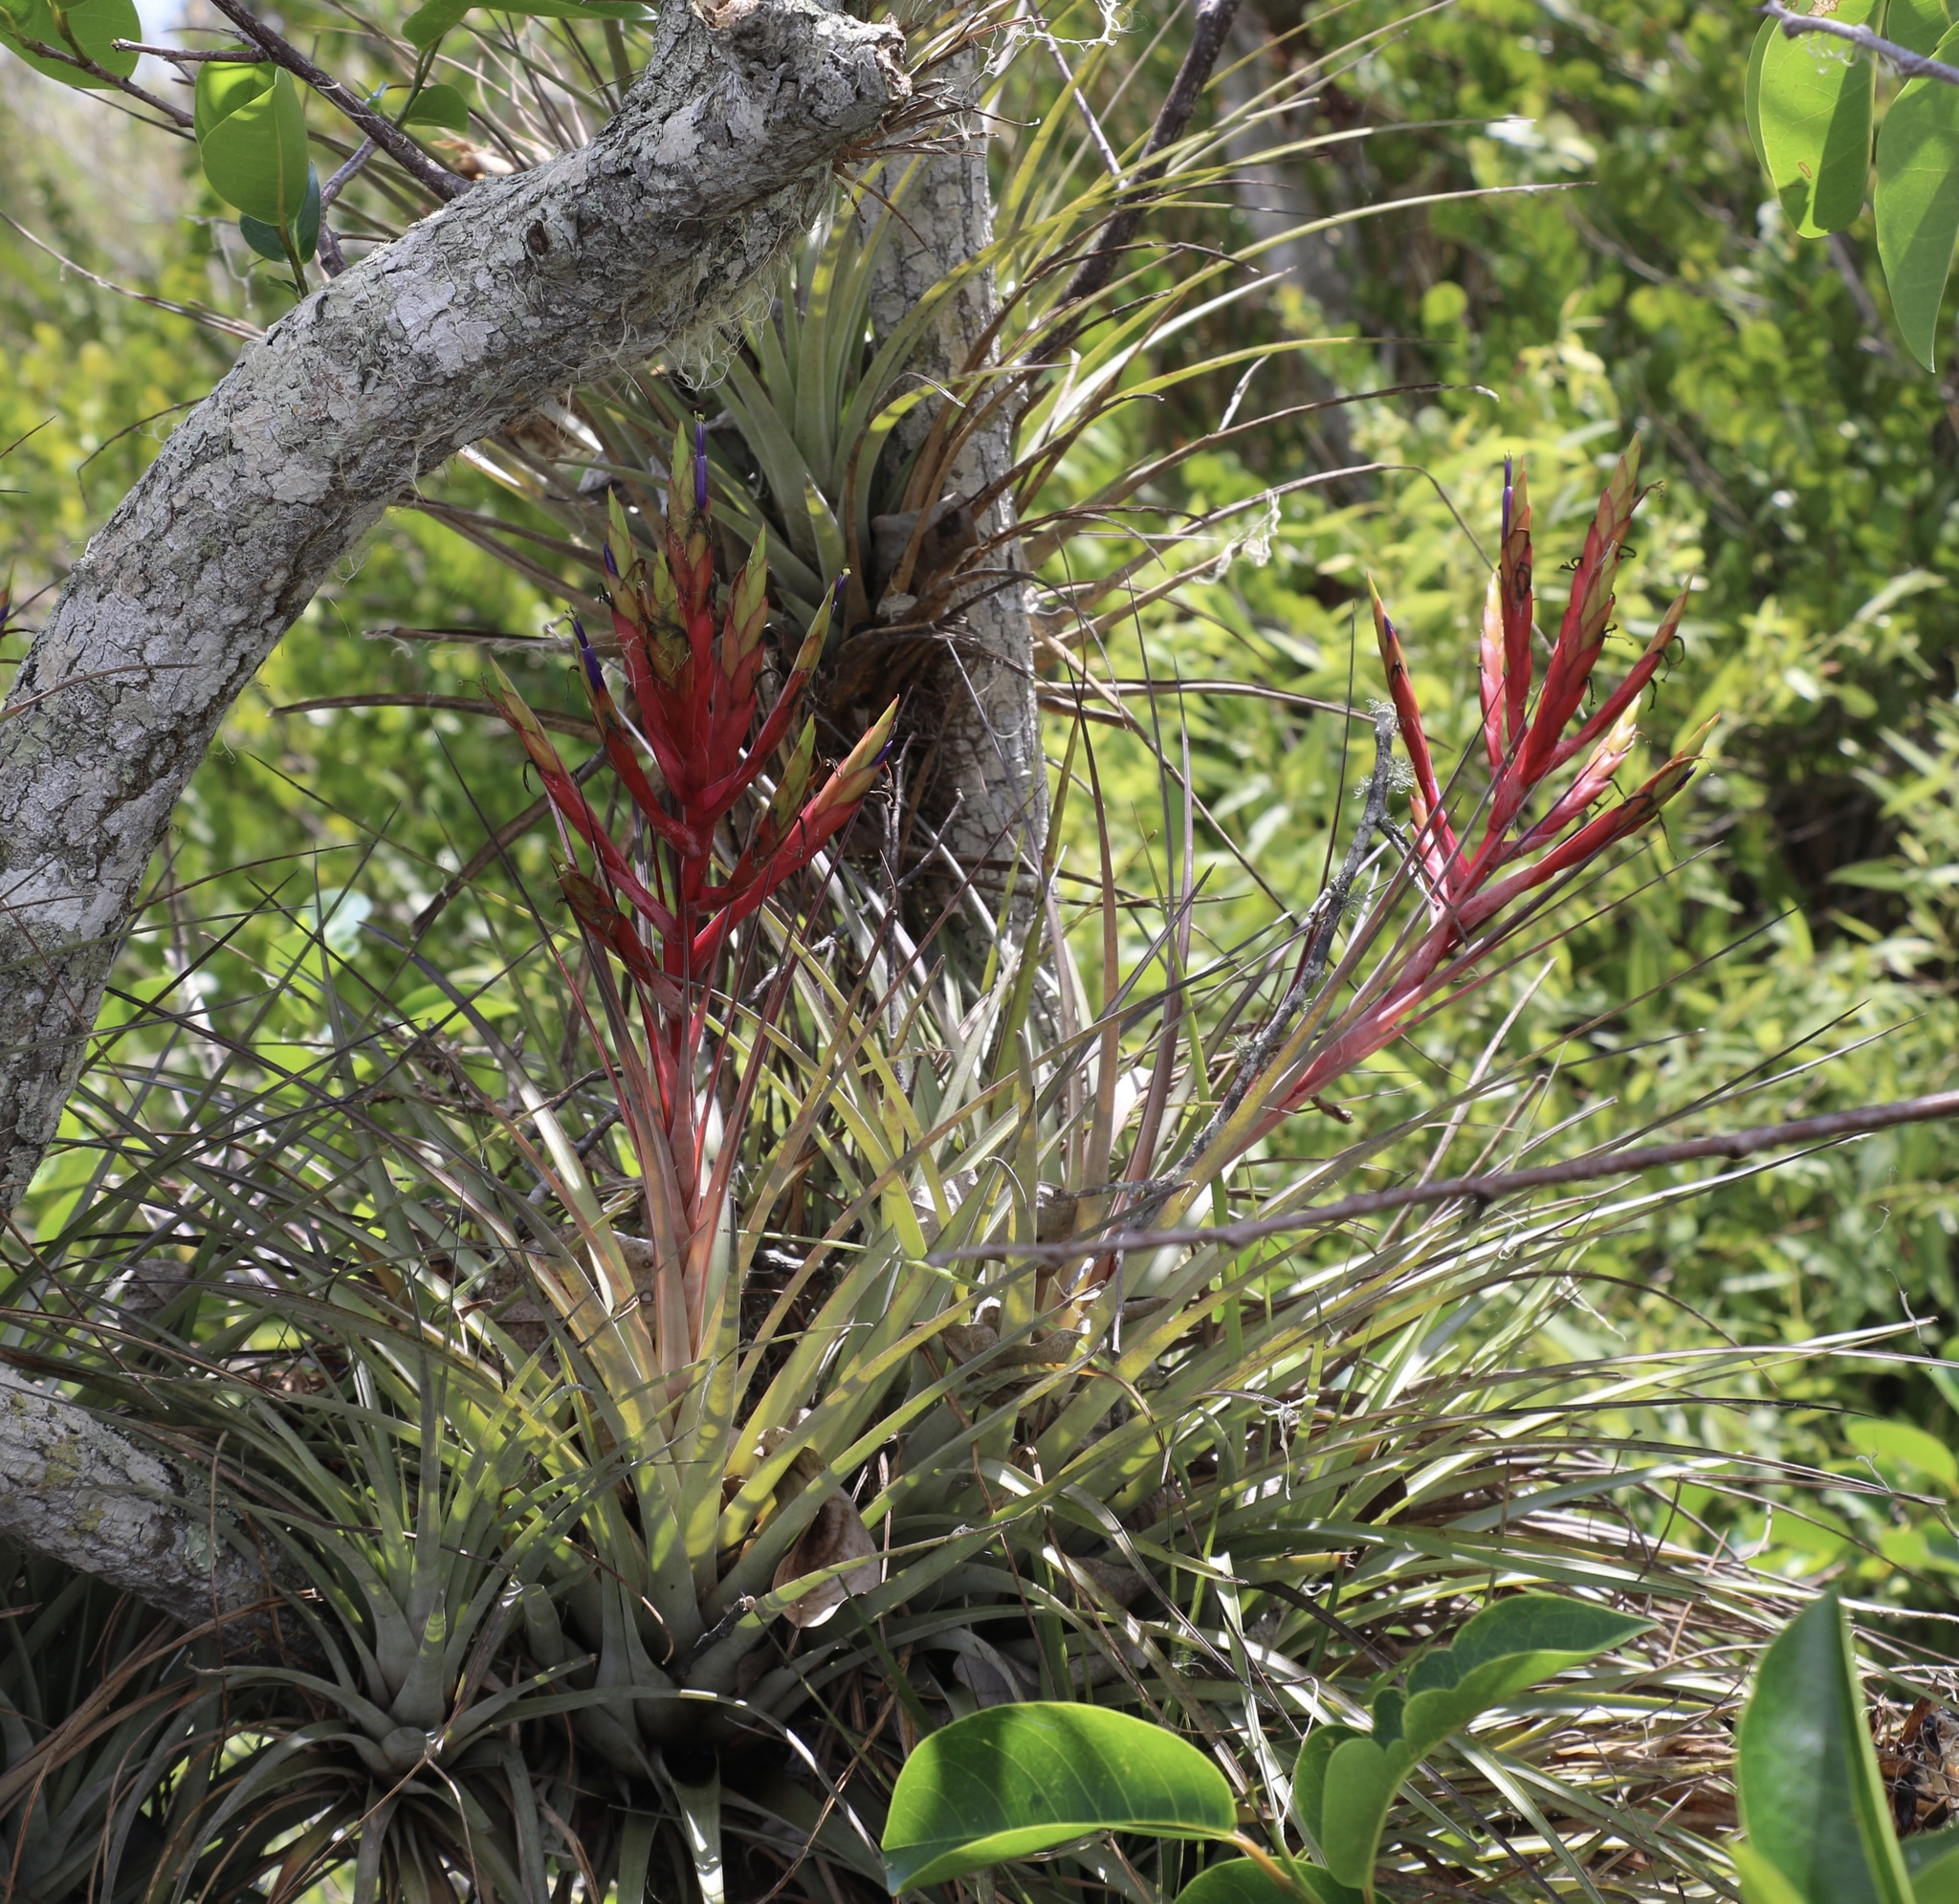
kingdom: Plantae
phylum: Tracheophyta
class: Liliopsida
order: Poales
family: Bromeliaceae
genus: Tillandsia
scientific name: Tillandsia fasciculata
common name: Giant airplant
